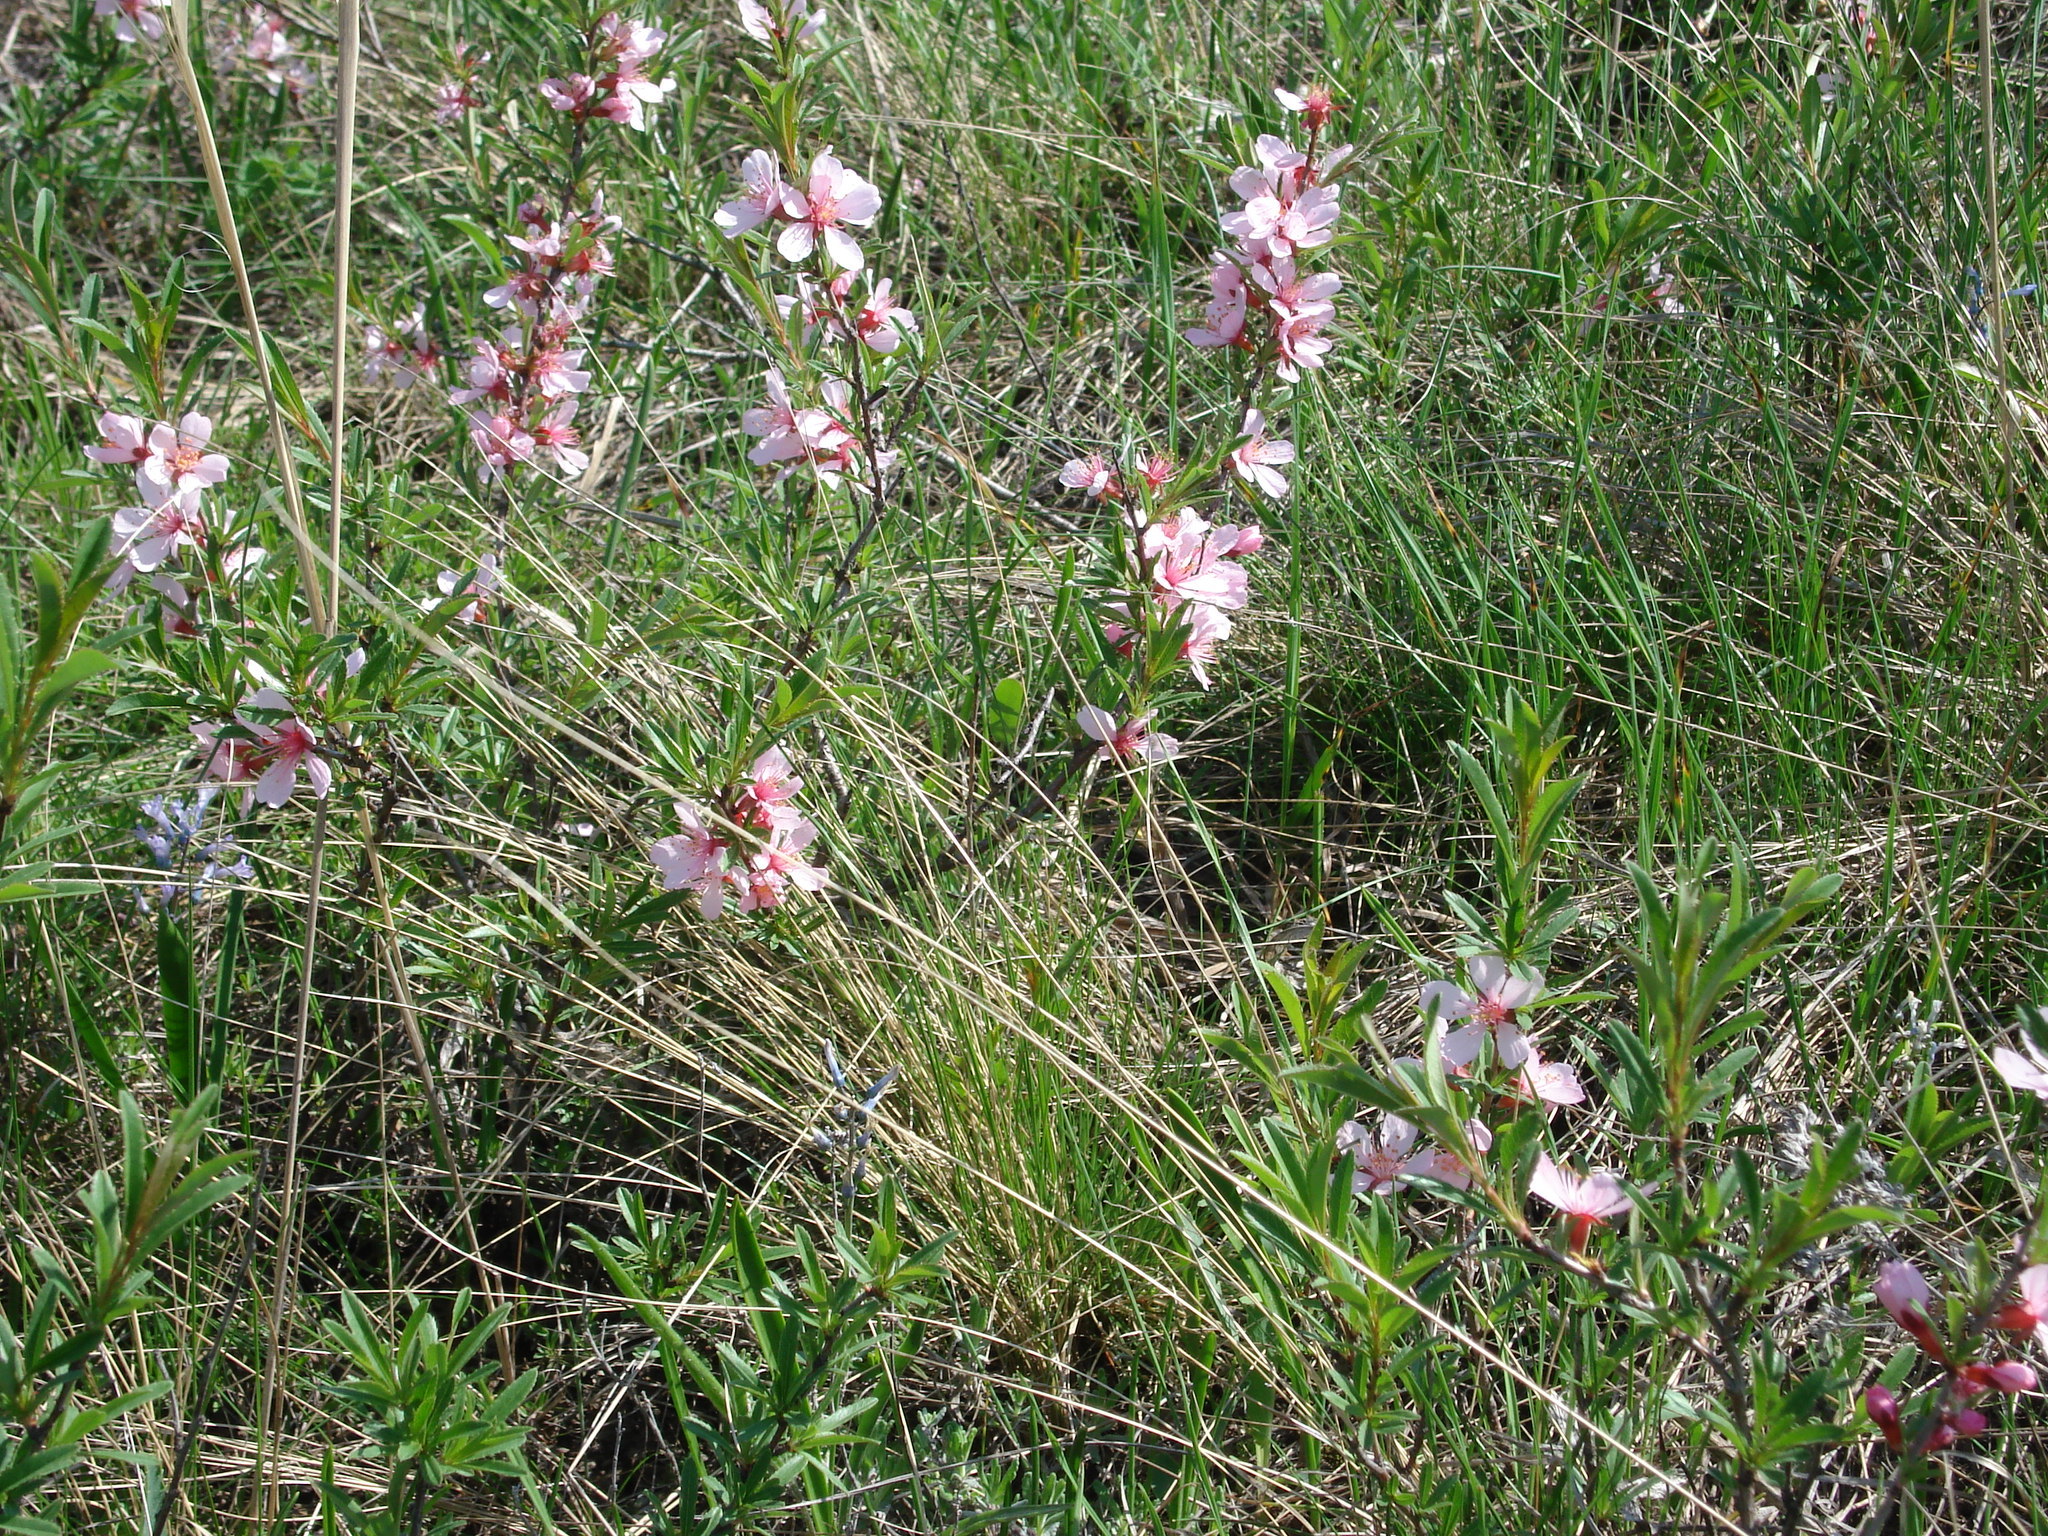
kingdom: Plantae
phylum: Tracheophyta
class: Magnoliopsida
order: Rosales
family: Rosaceae
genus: Prunus
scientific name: Prunus tenella
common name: Dwarf russian almond
